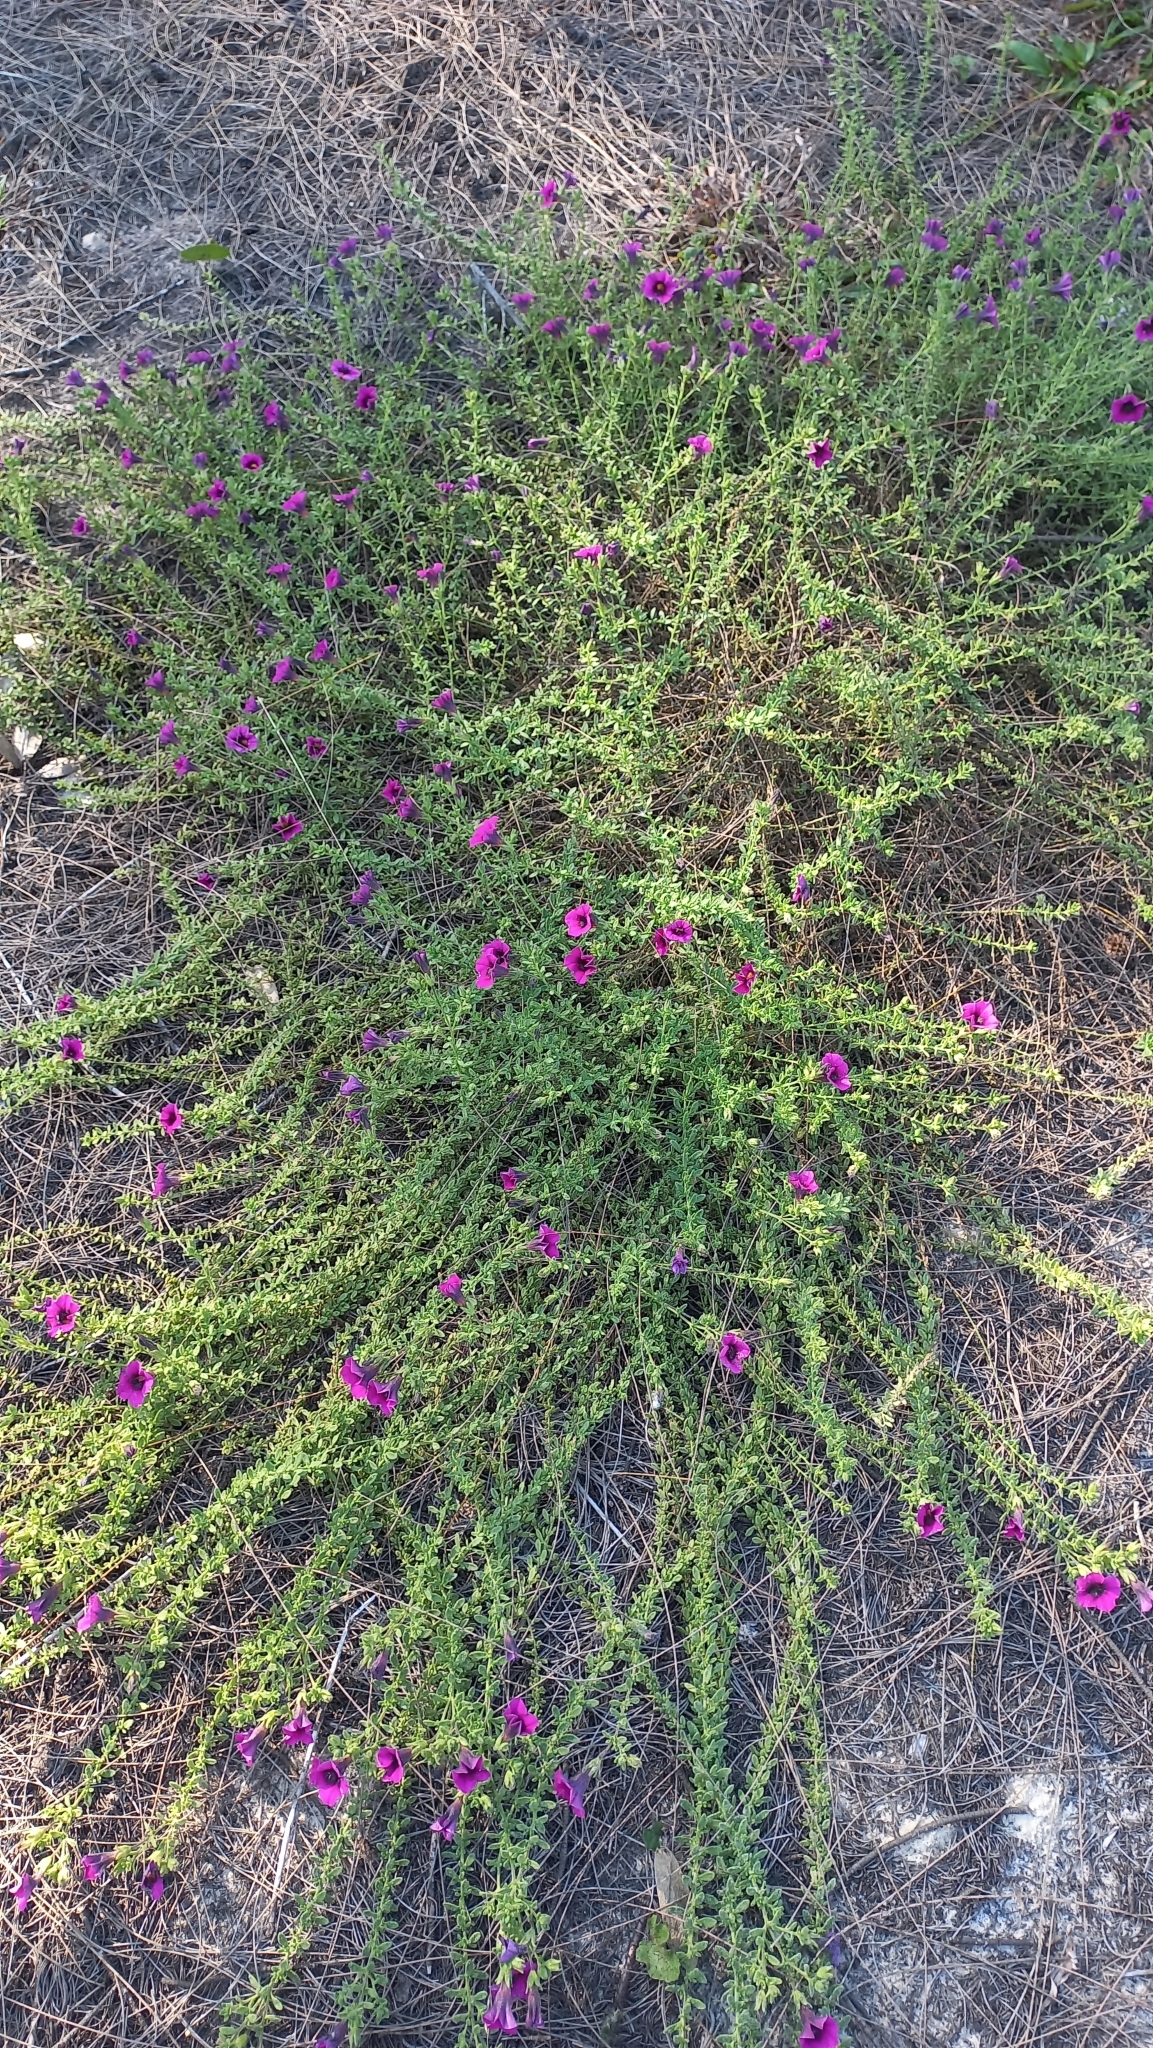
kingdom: Plantae
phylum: Tracheophyta
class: Magnoliopsida
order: Solanales
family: Solanaceae
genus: Calibrachoa
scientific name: Calibrachoa heterophylla
